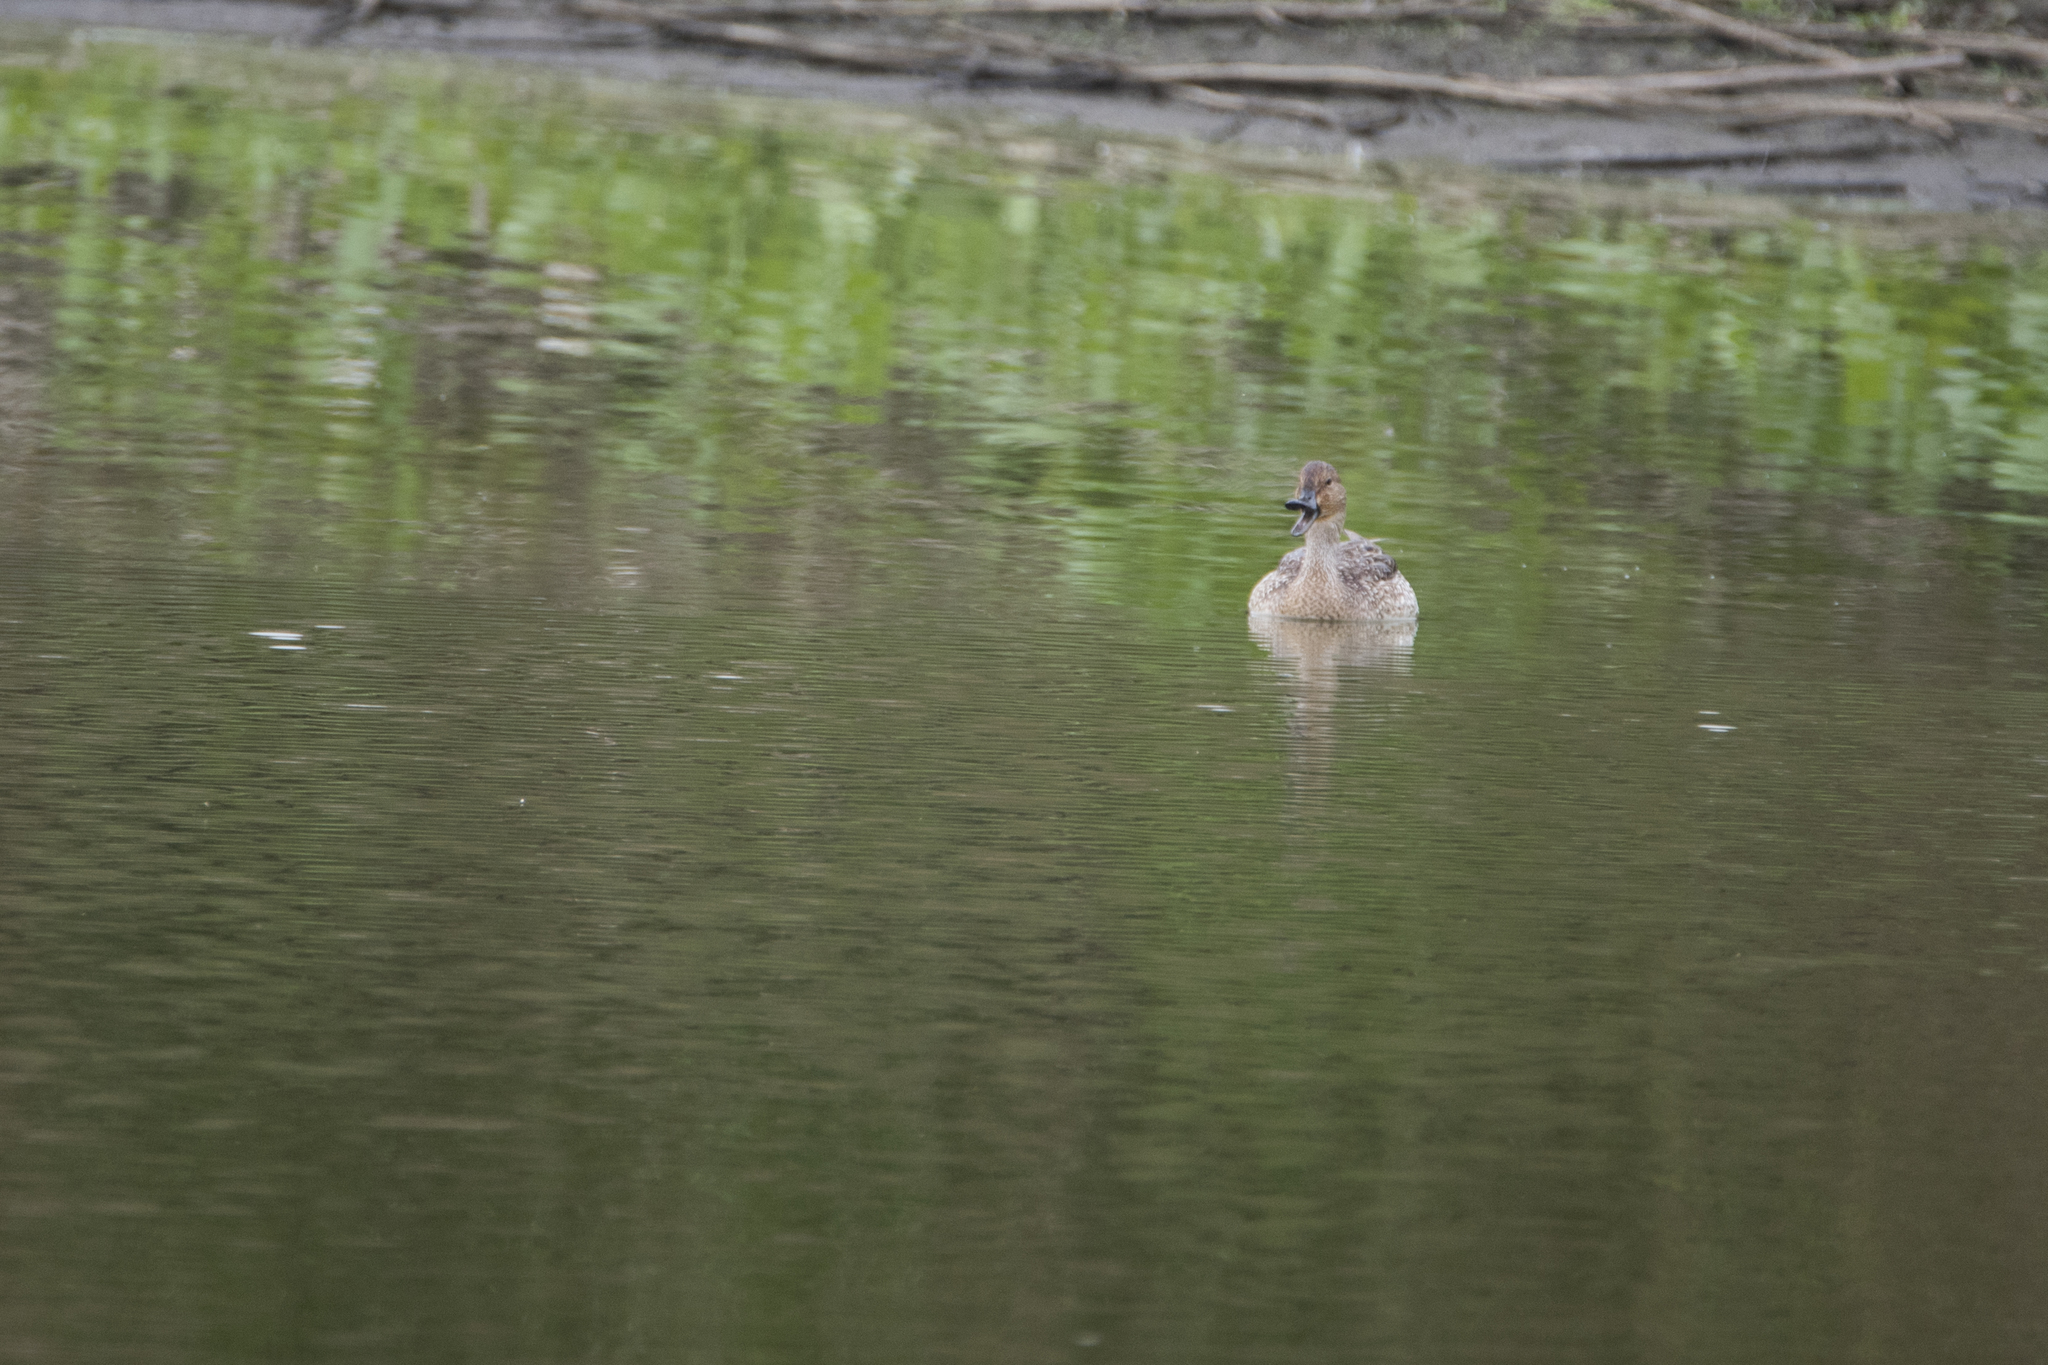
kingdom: Animalia
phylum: Chordata
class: Aves
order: Anseriformes
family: Anatidae
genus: Anas
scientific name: Anas acuta
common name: Northern pintail
